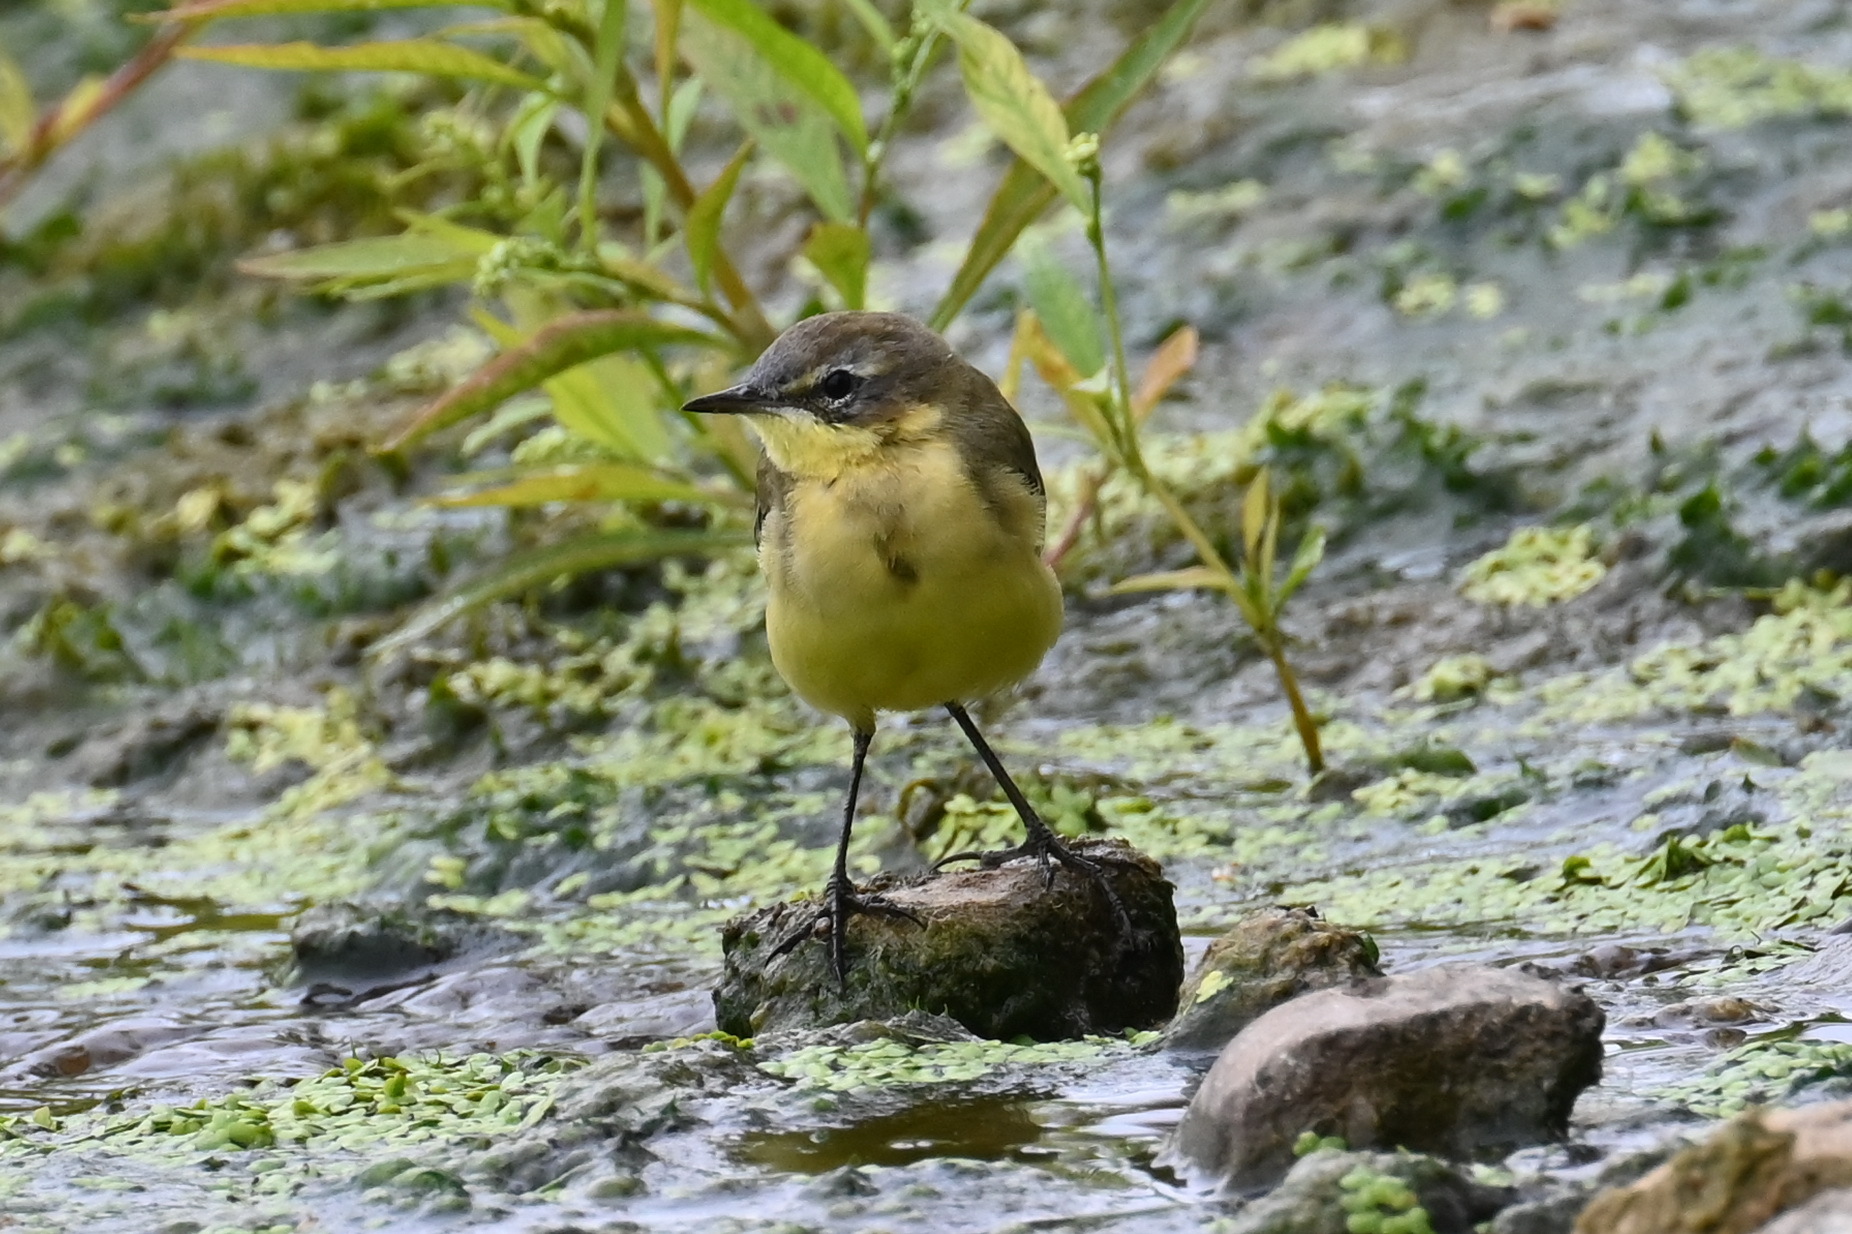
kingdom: Animalia
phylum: Chordata
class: Aves
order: Passeriformes
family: Motacillidae
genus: Motacilla
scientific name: Motacilla flava
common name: Western yellow wagtail
